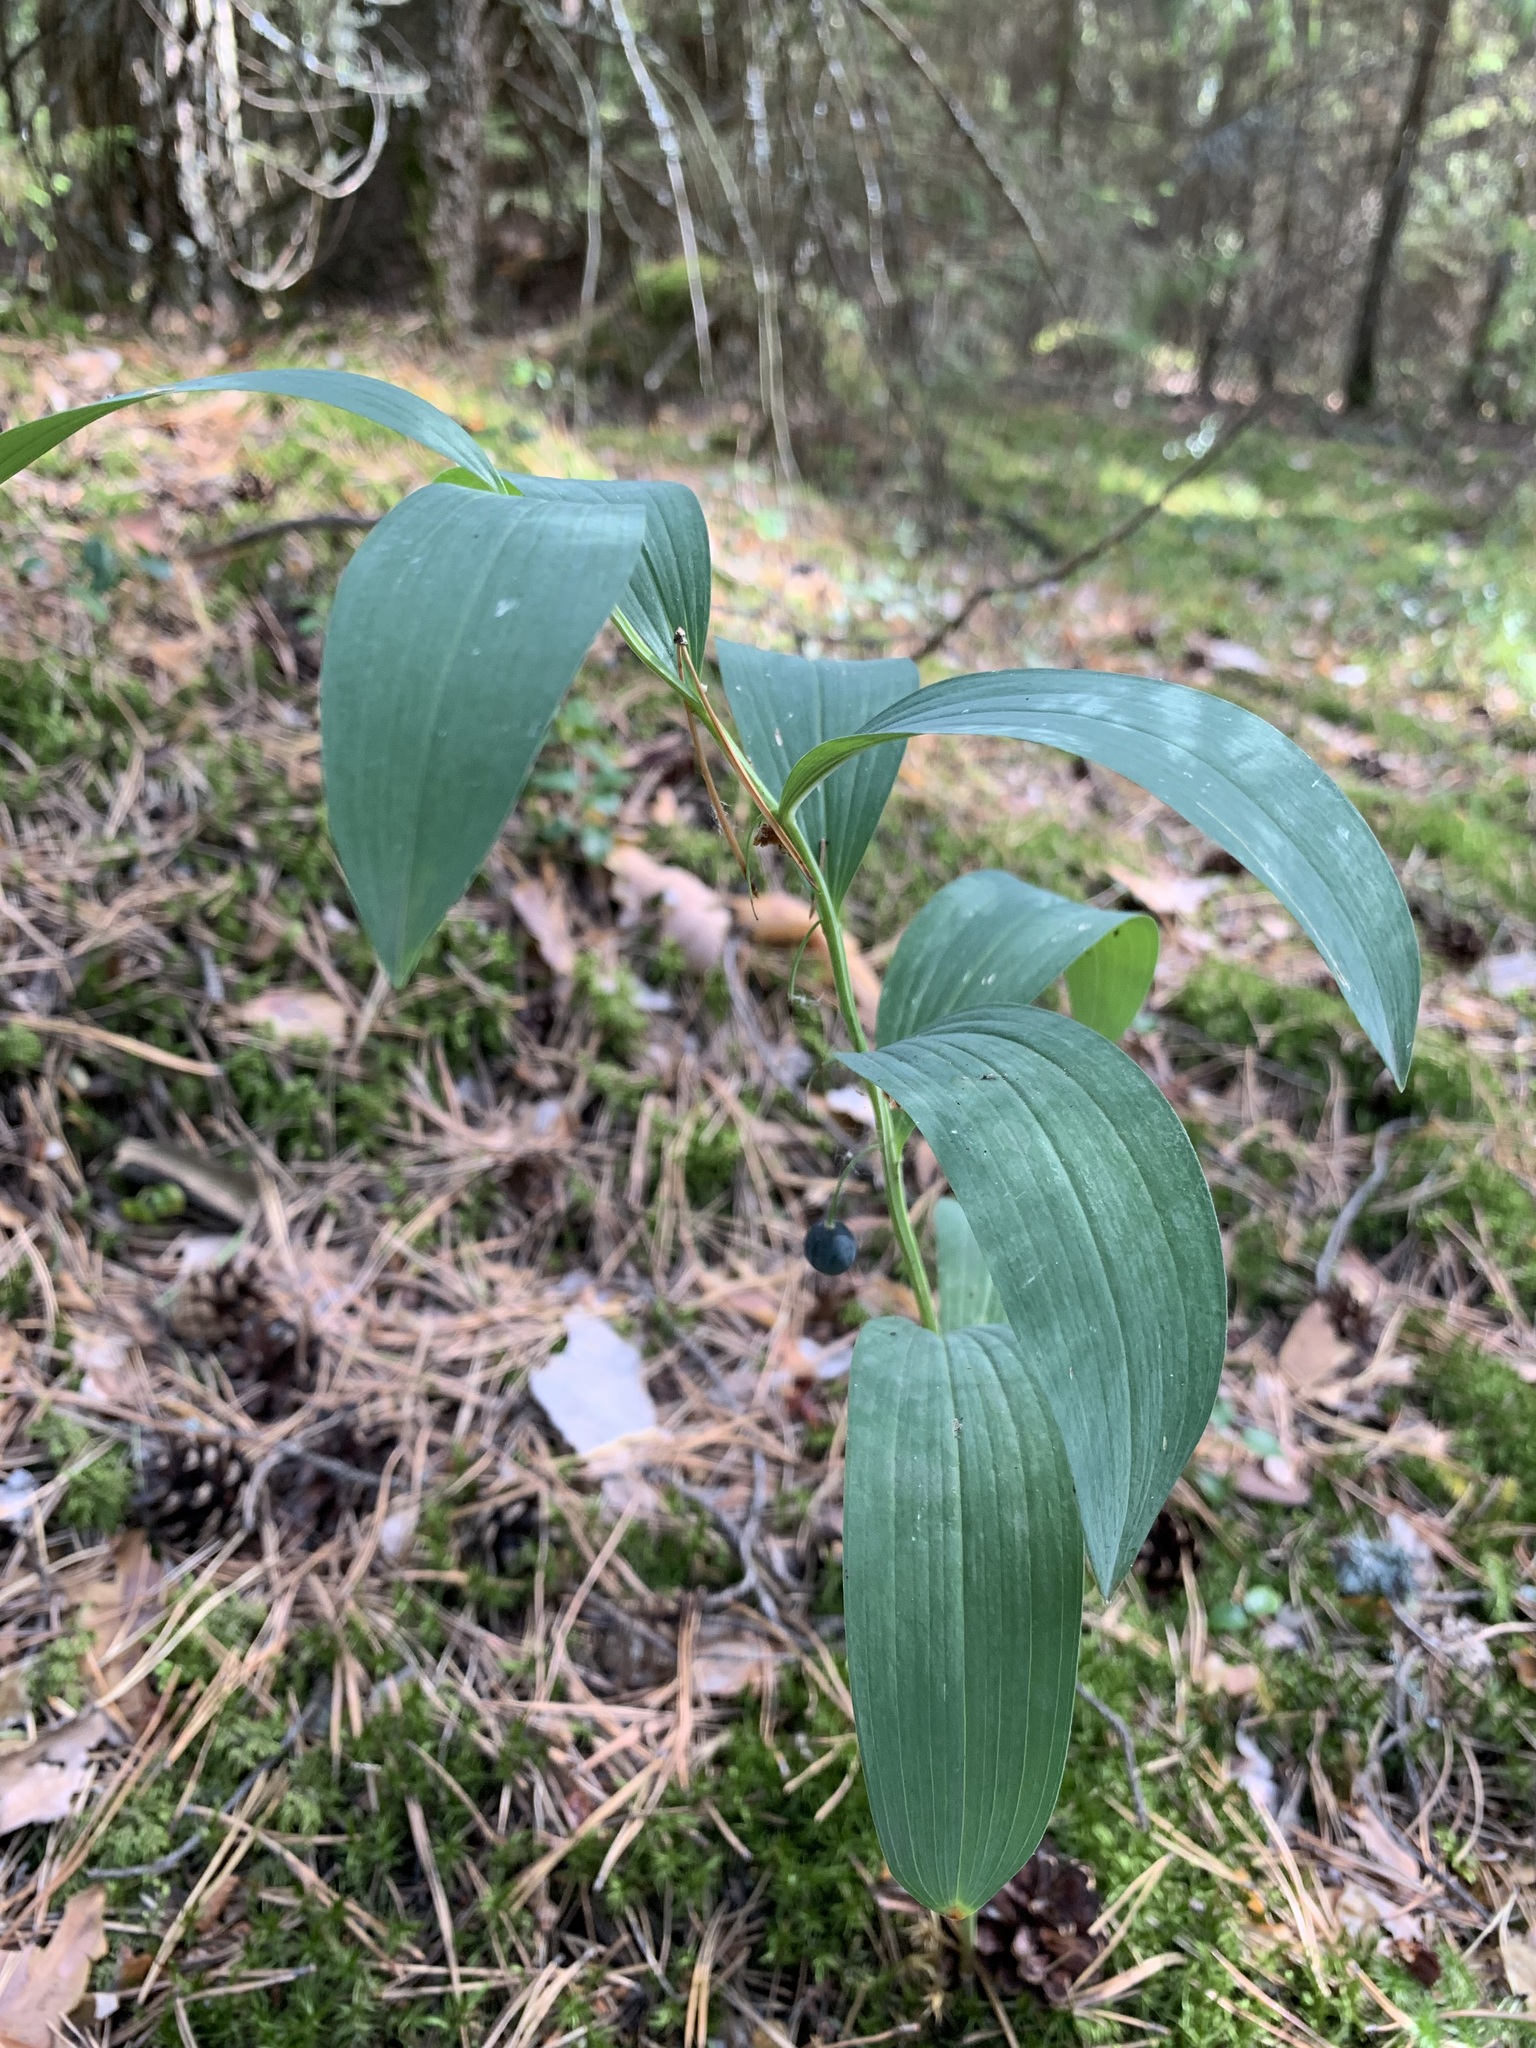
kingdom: Plantae
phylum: Tracheophyta
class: Liliopsida
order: Asparagales
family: Asparagaceae
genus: Polygonatum
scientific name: Polygonatum odoratum
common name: Angular solomon's-seal
